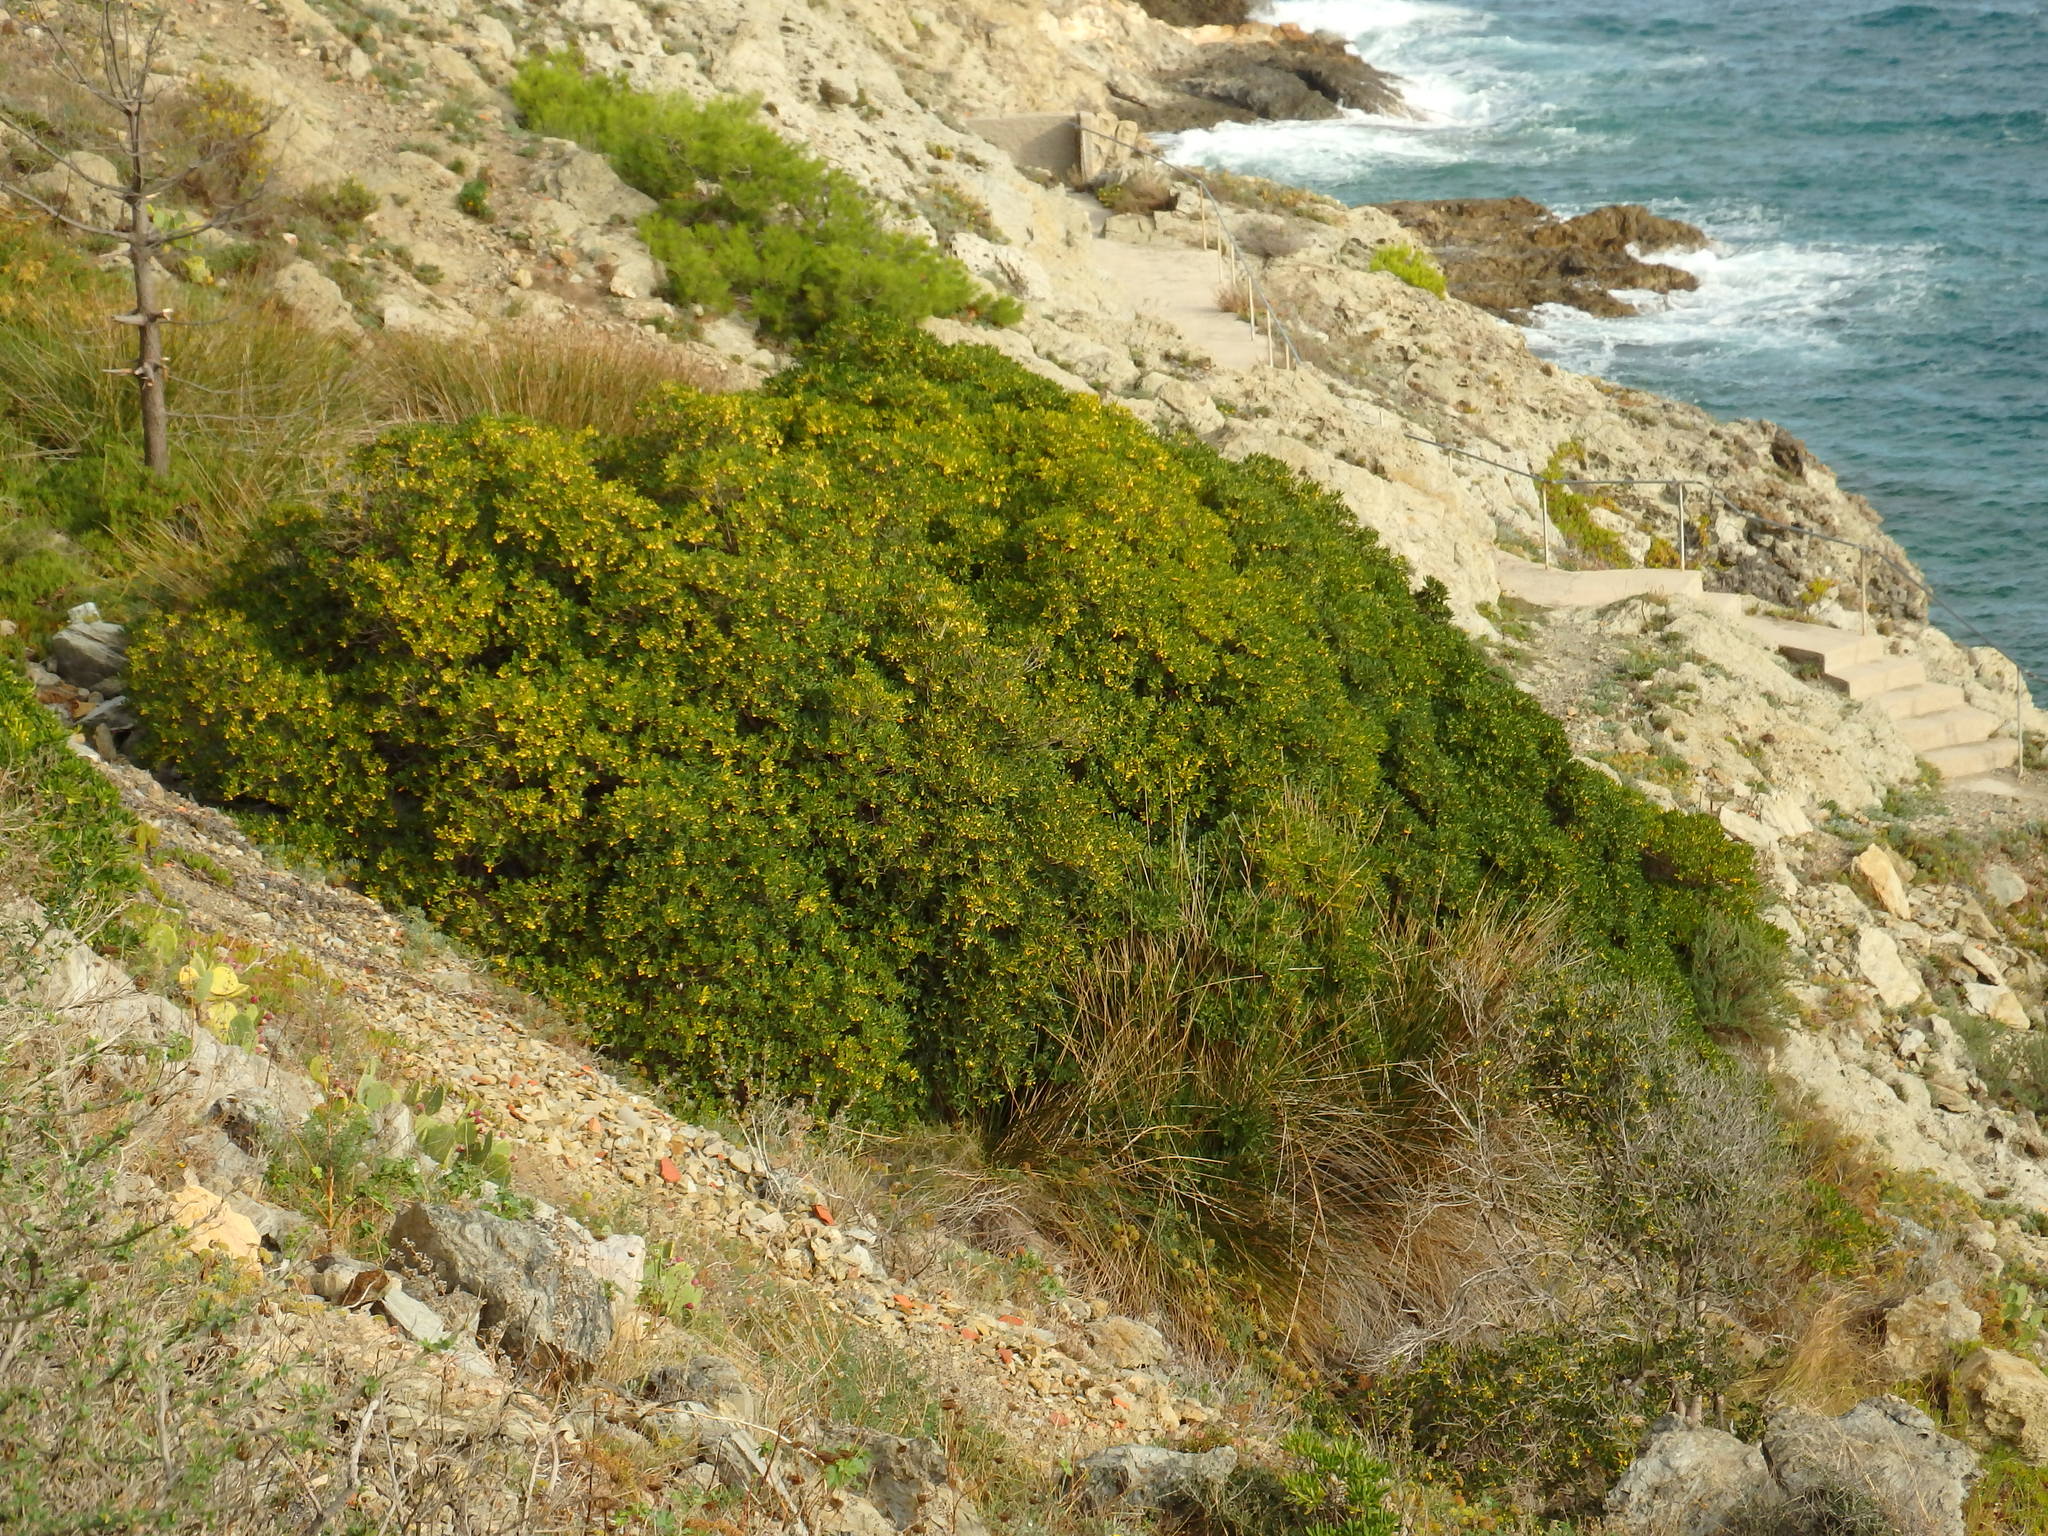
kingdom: Plantae
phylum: Tracheophyta
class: Magnoliopsida
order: Apiales
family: Pittosporaceae
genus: Pittosporum
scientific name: Pittosporum tobira
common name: Japanese cheesewood
